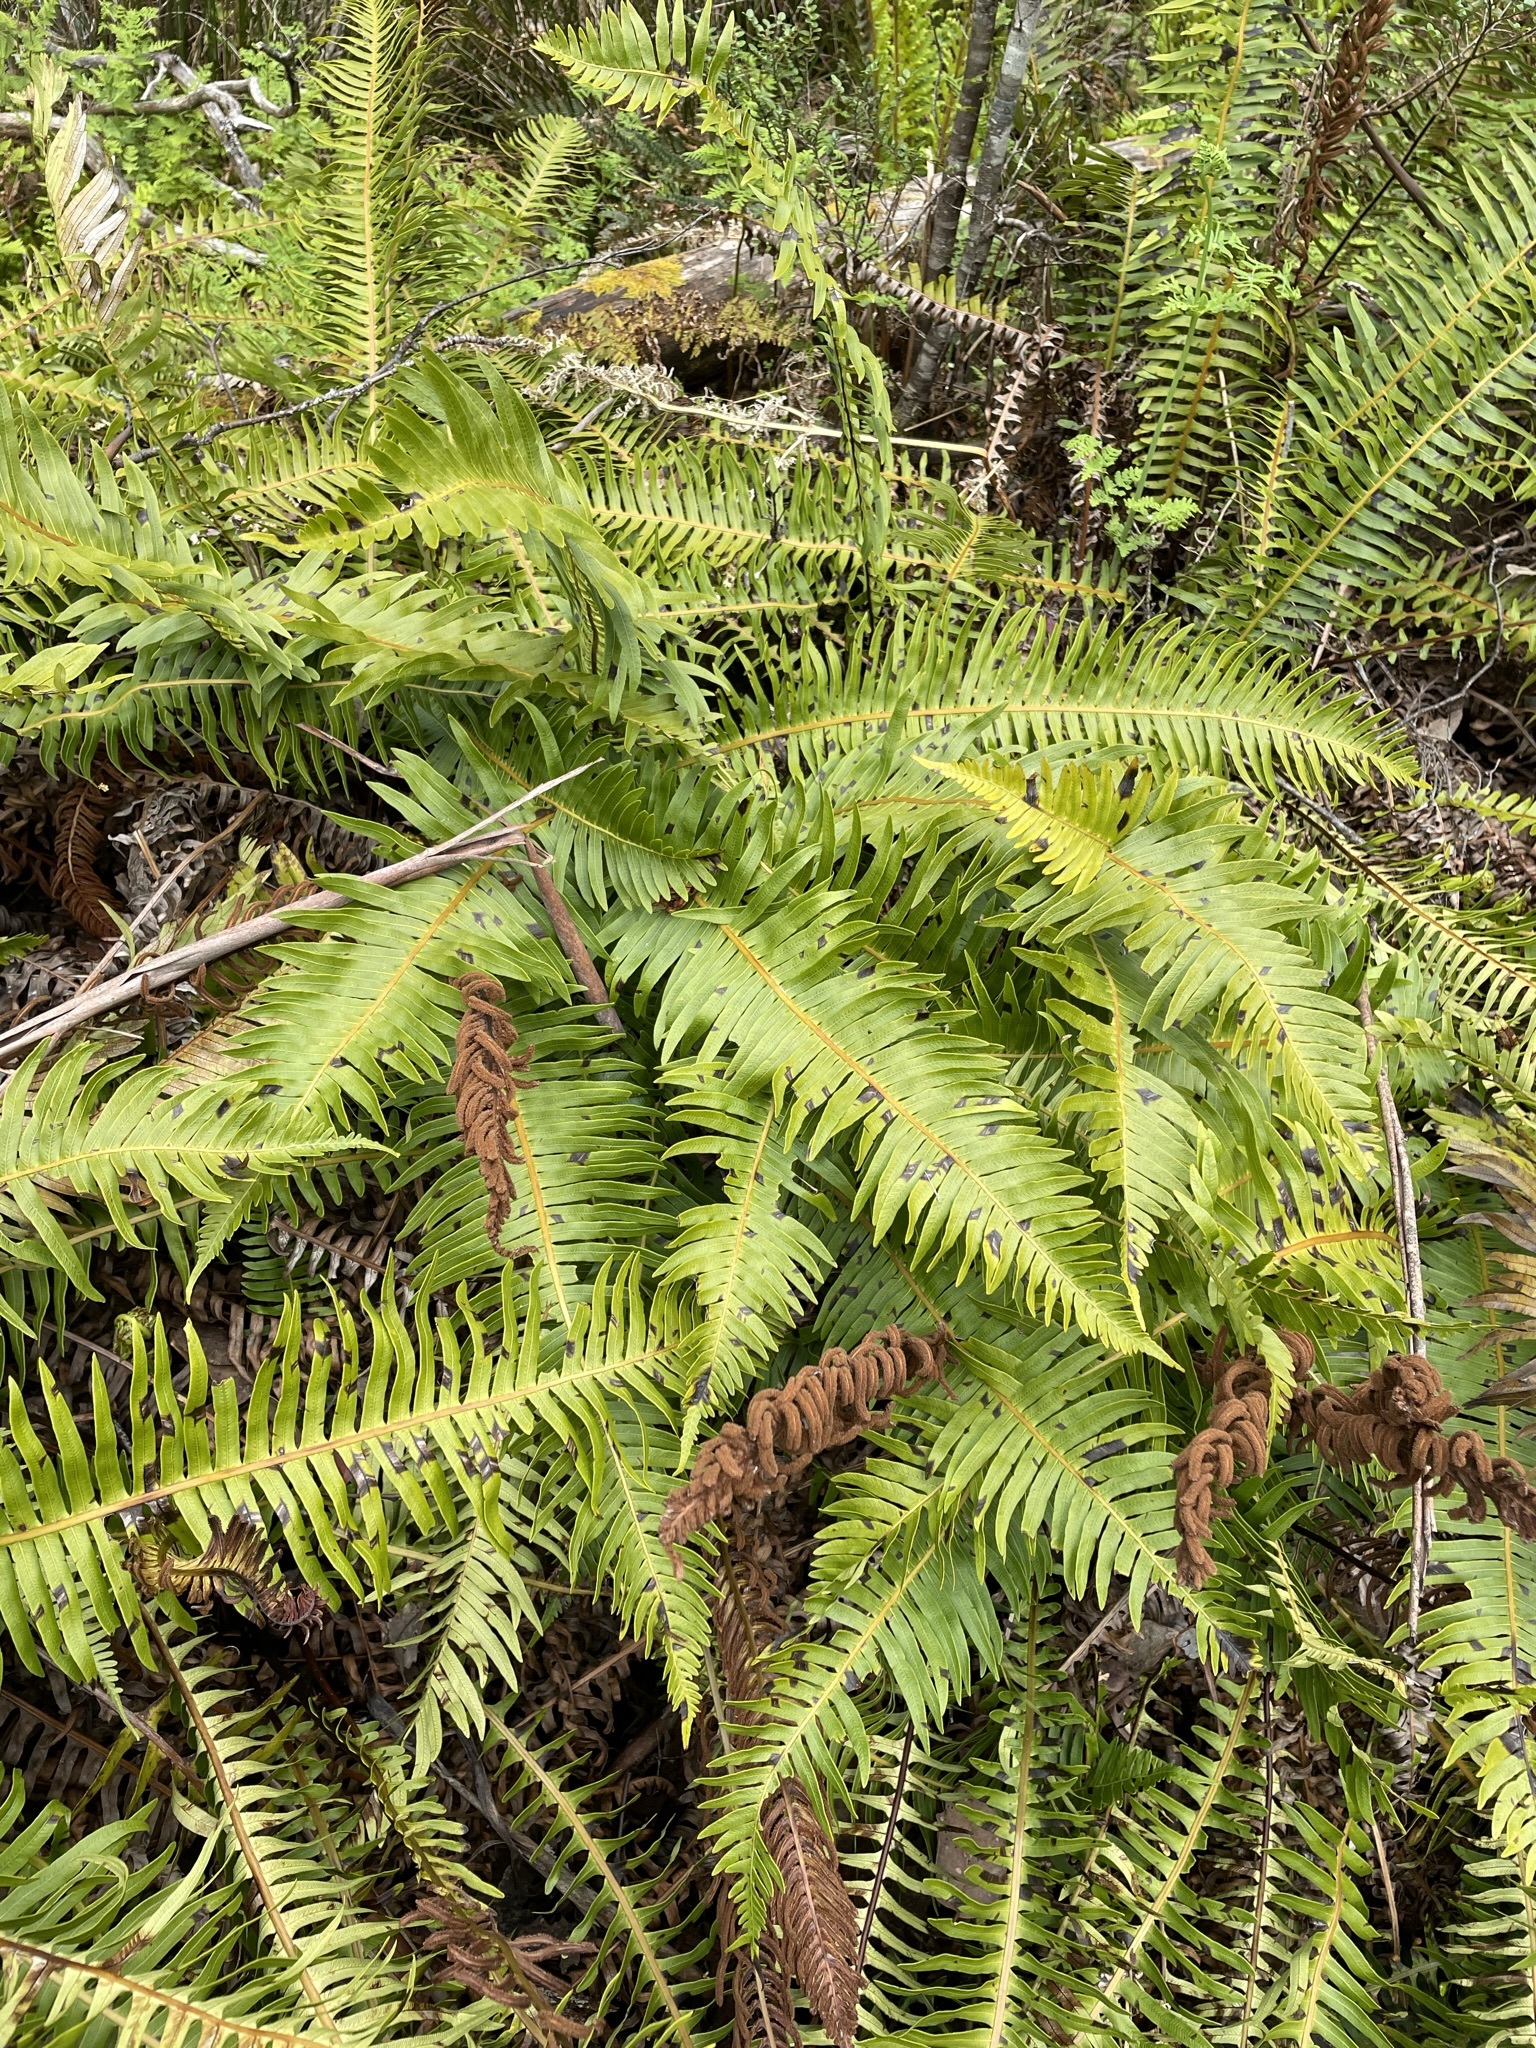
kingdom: Plantae
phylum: Tracheophyta
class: Polypodiopsida
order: Polypodiales
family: Blechnaceae
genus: Lomaria
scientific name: Lomaria nuda
